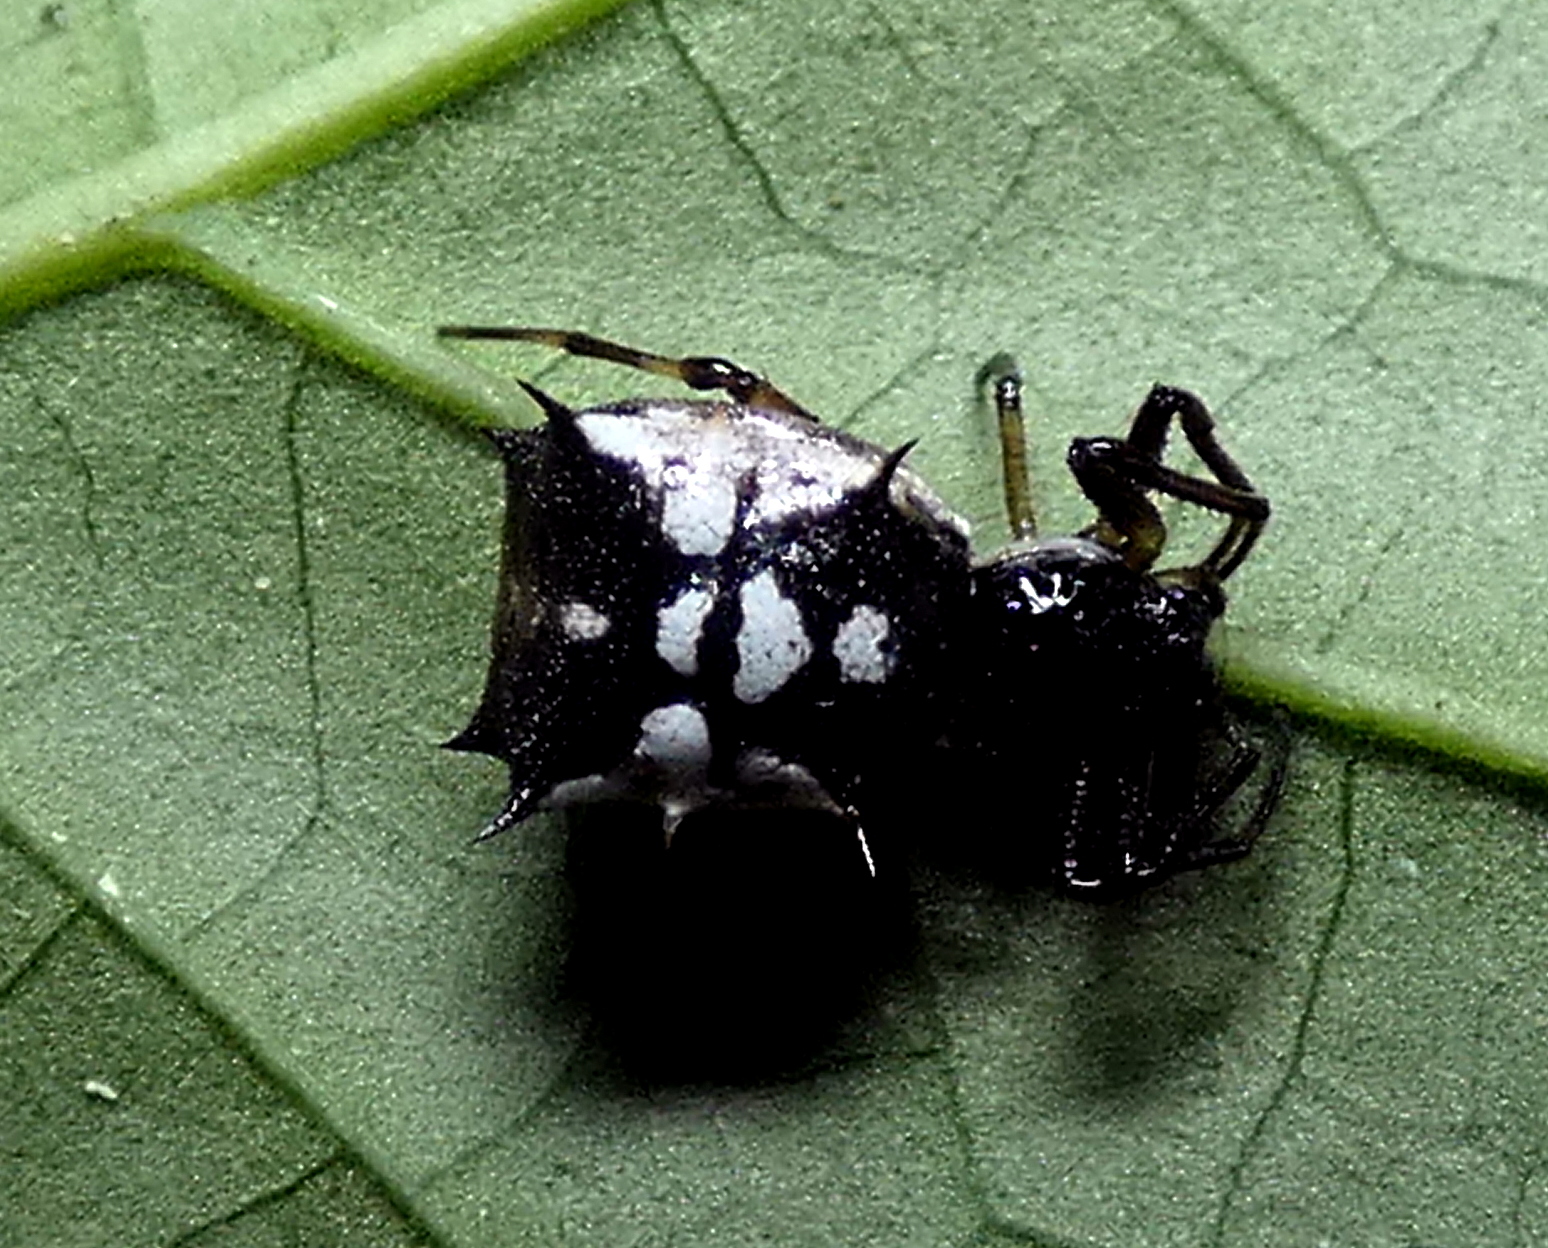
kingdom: Animalia
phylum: Arthropoda
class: Arachnida
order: Araneae
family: Araneidae
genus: Micrathena
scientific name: Micrathena picta
